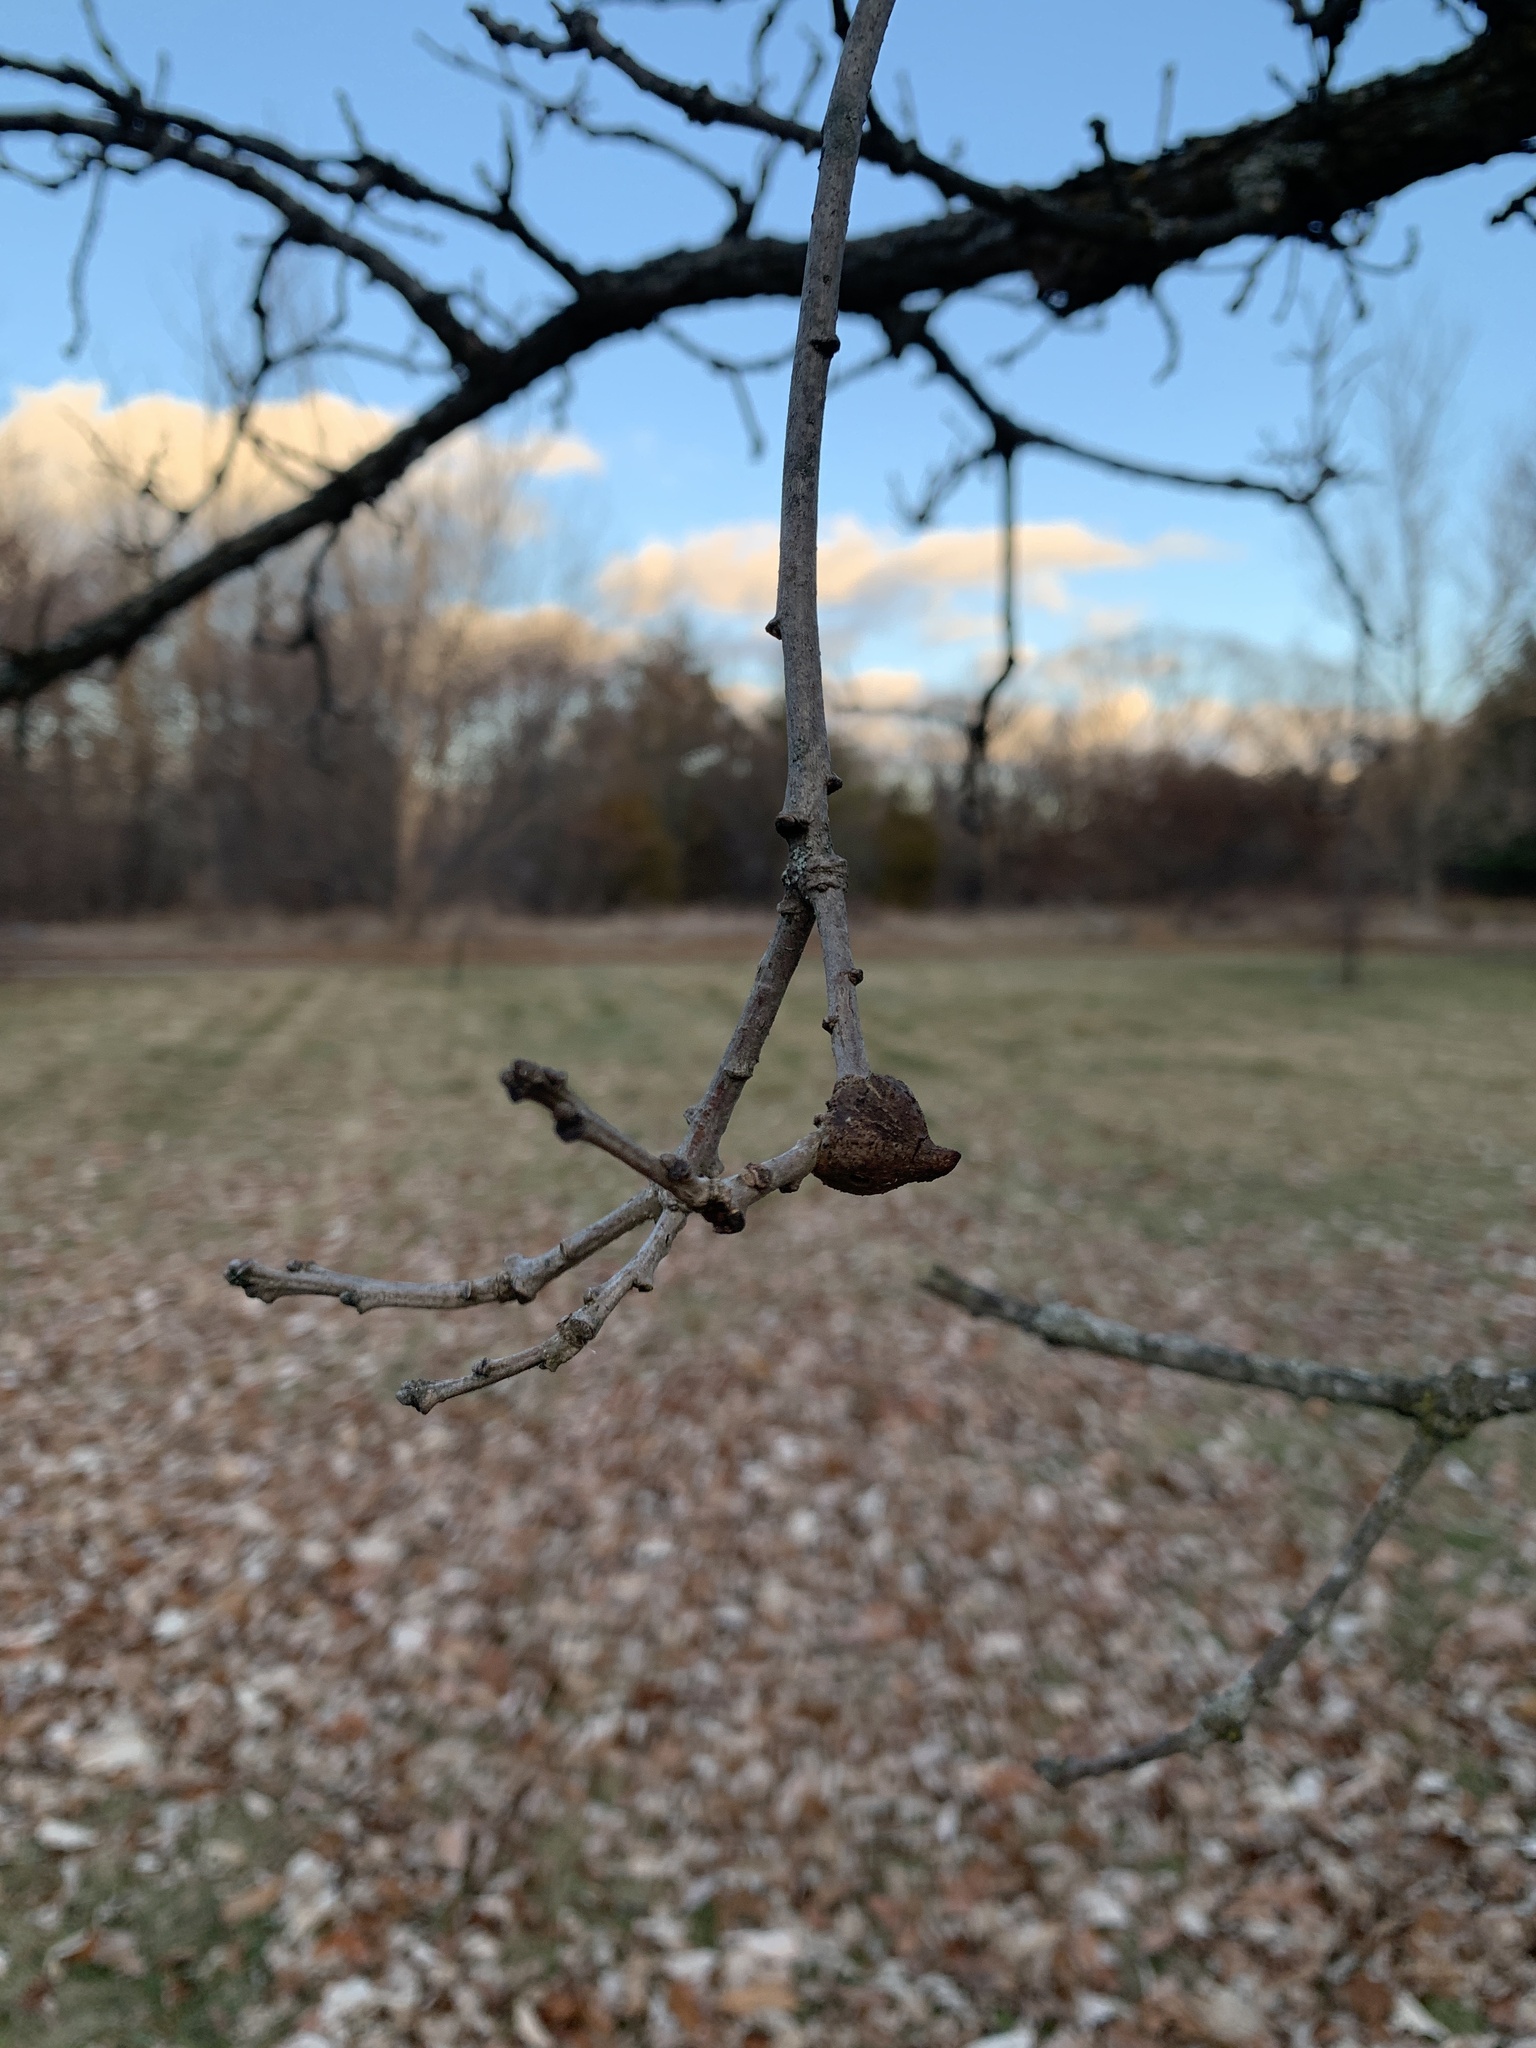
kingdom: Animalia
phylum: Arthropoda
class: Insecta
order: Hymenoptera
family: Cynipidae
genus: Disholcaspis
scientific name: Disholcaspis
